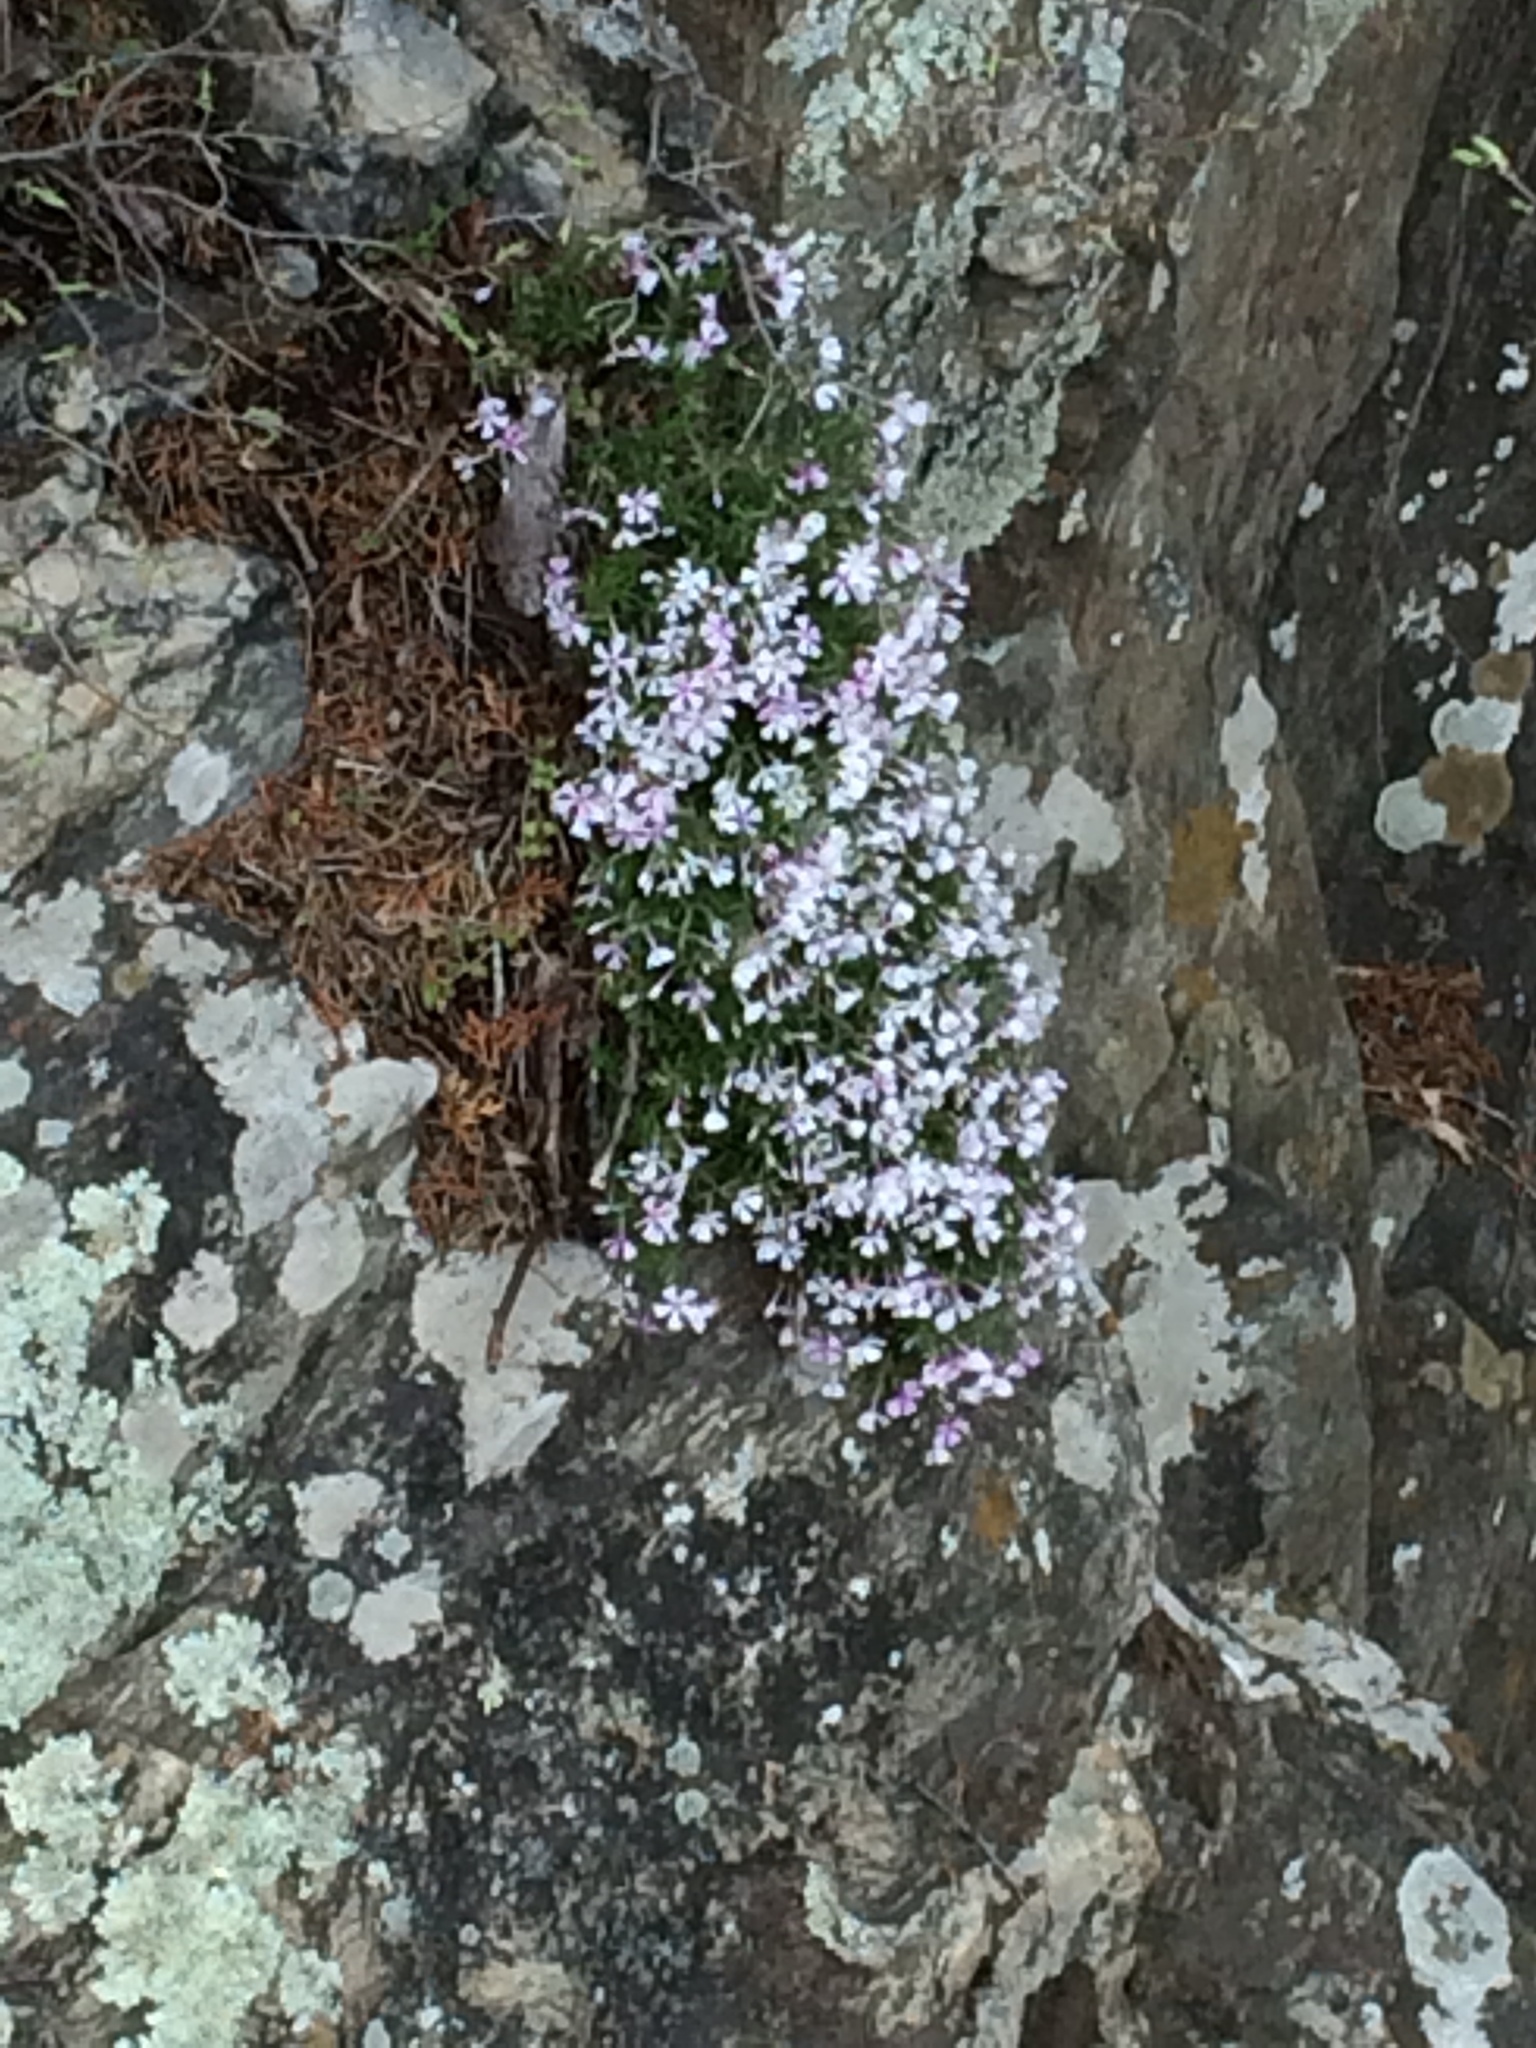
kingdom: Plantae
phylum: Tracheophyta
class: Magnoliopsida
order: Ericales
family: Polemoniaceae
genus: Phlox
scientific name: Phlox subulata
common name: Moss phlox
